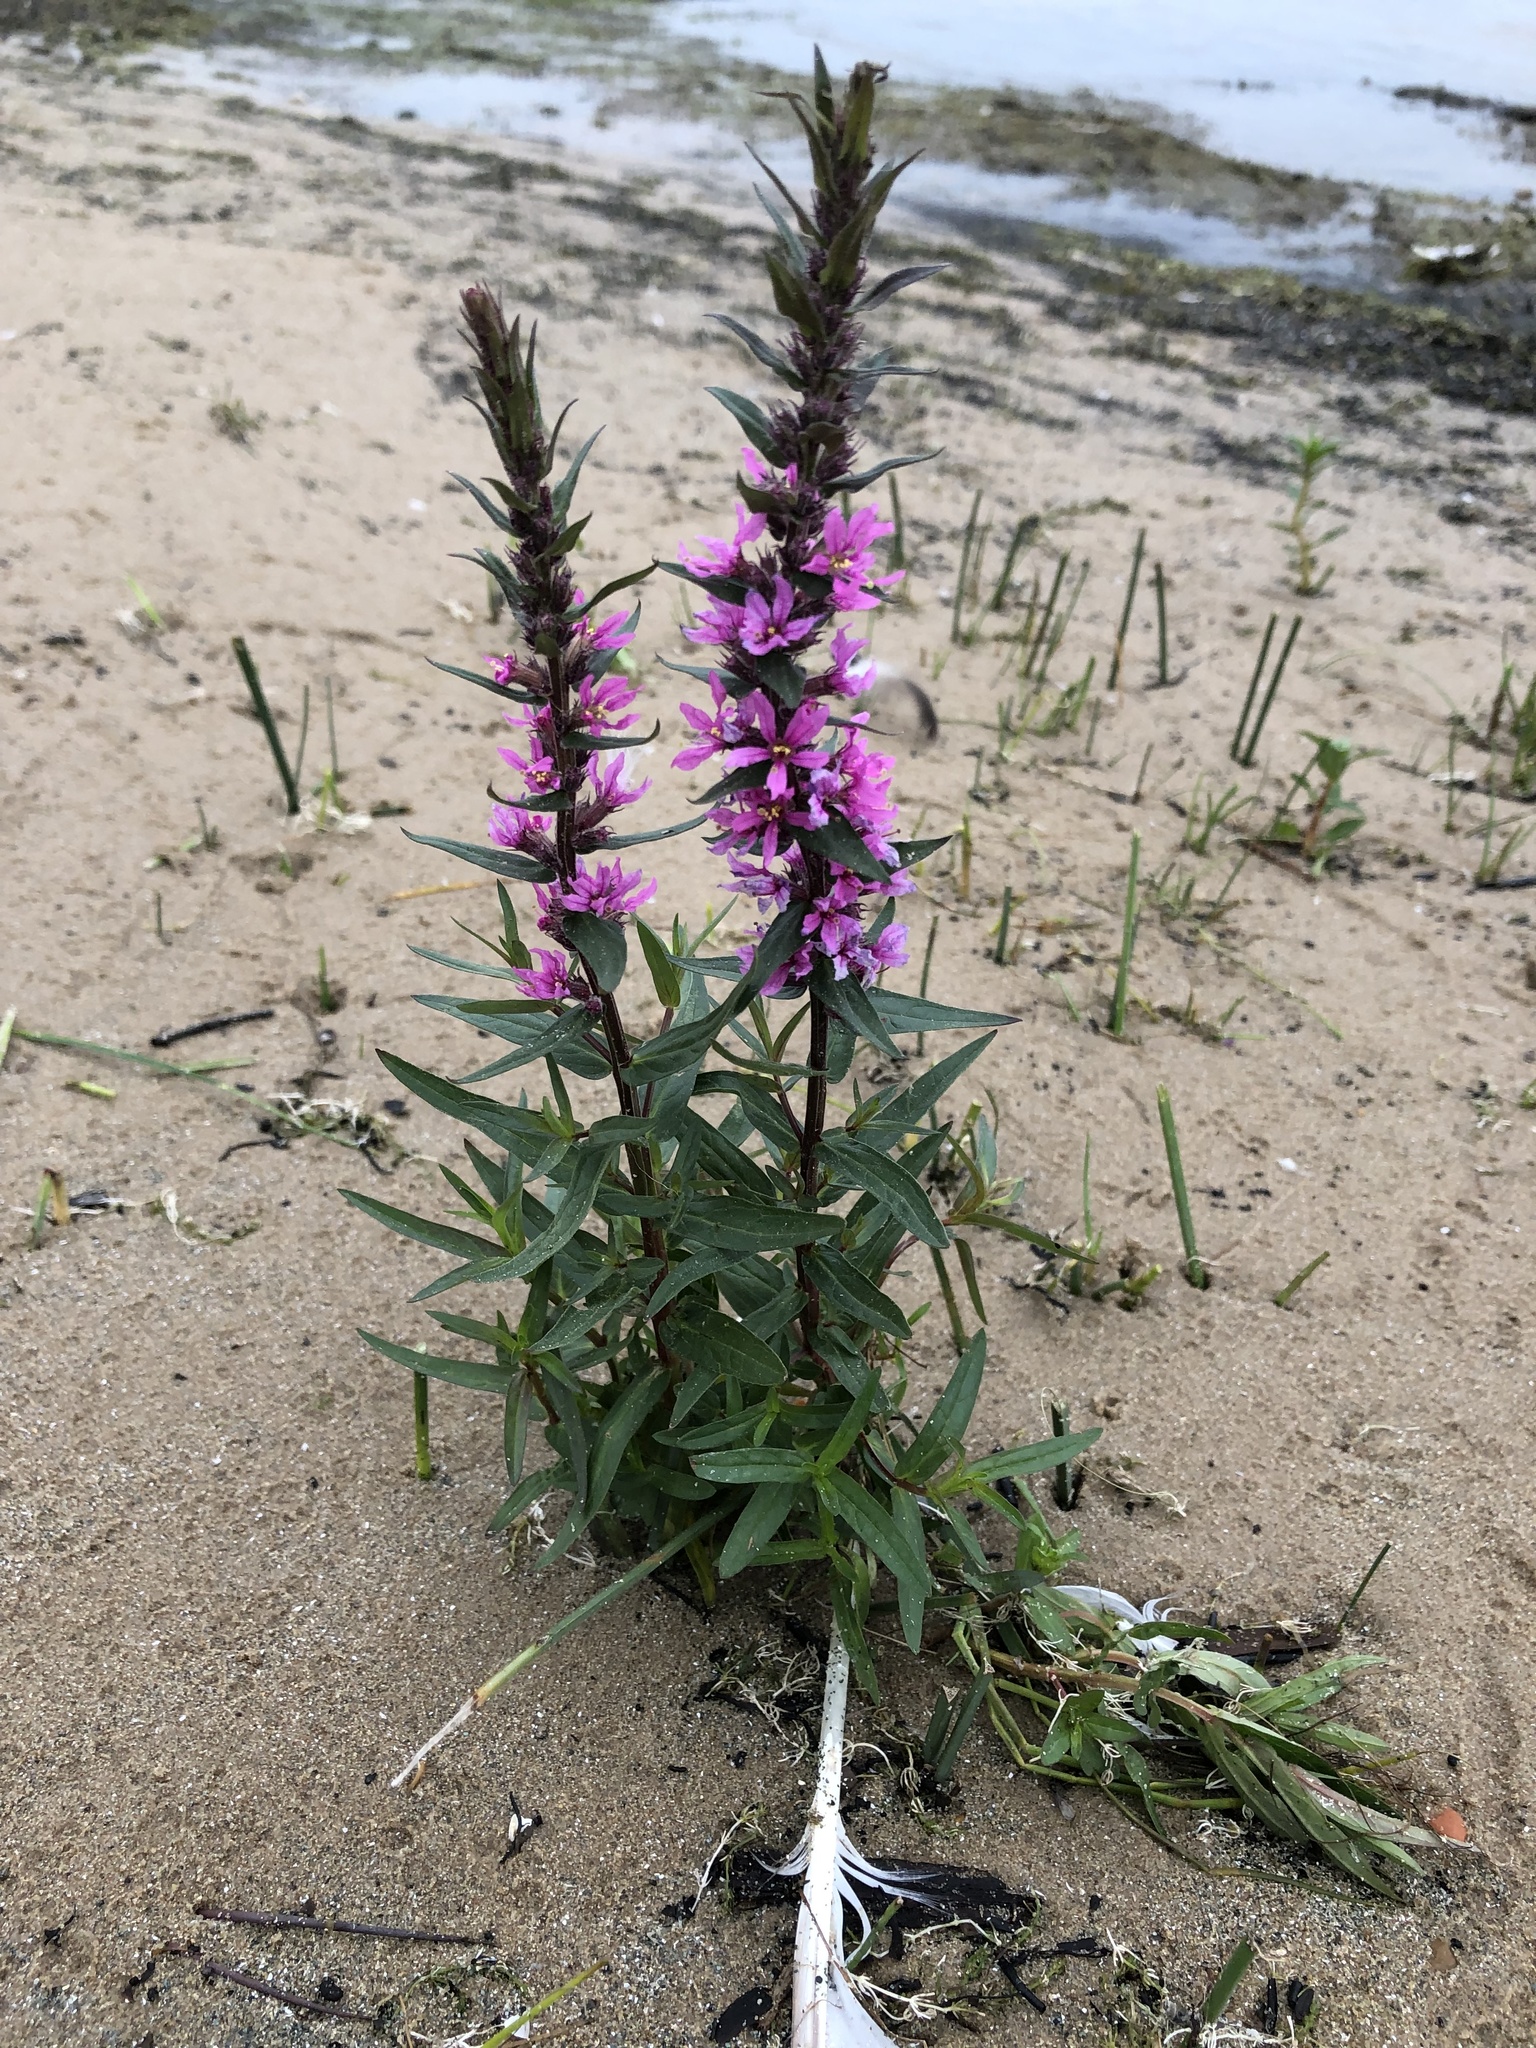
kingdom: Plantae
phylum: Tracheophyta
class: Magnoliopsida
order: Myrtales
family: Lythraceae
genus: Lythrum
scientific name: Lythrum salicaria
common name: Purple loosestrife
